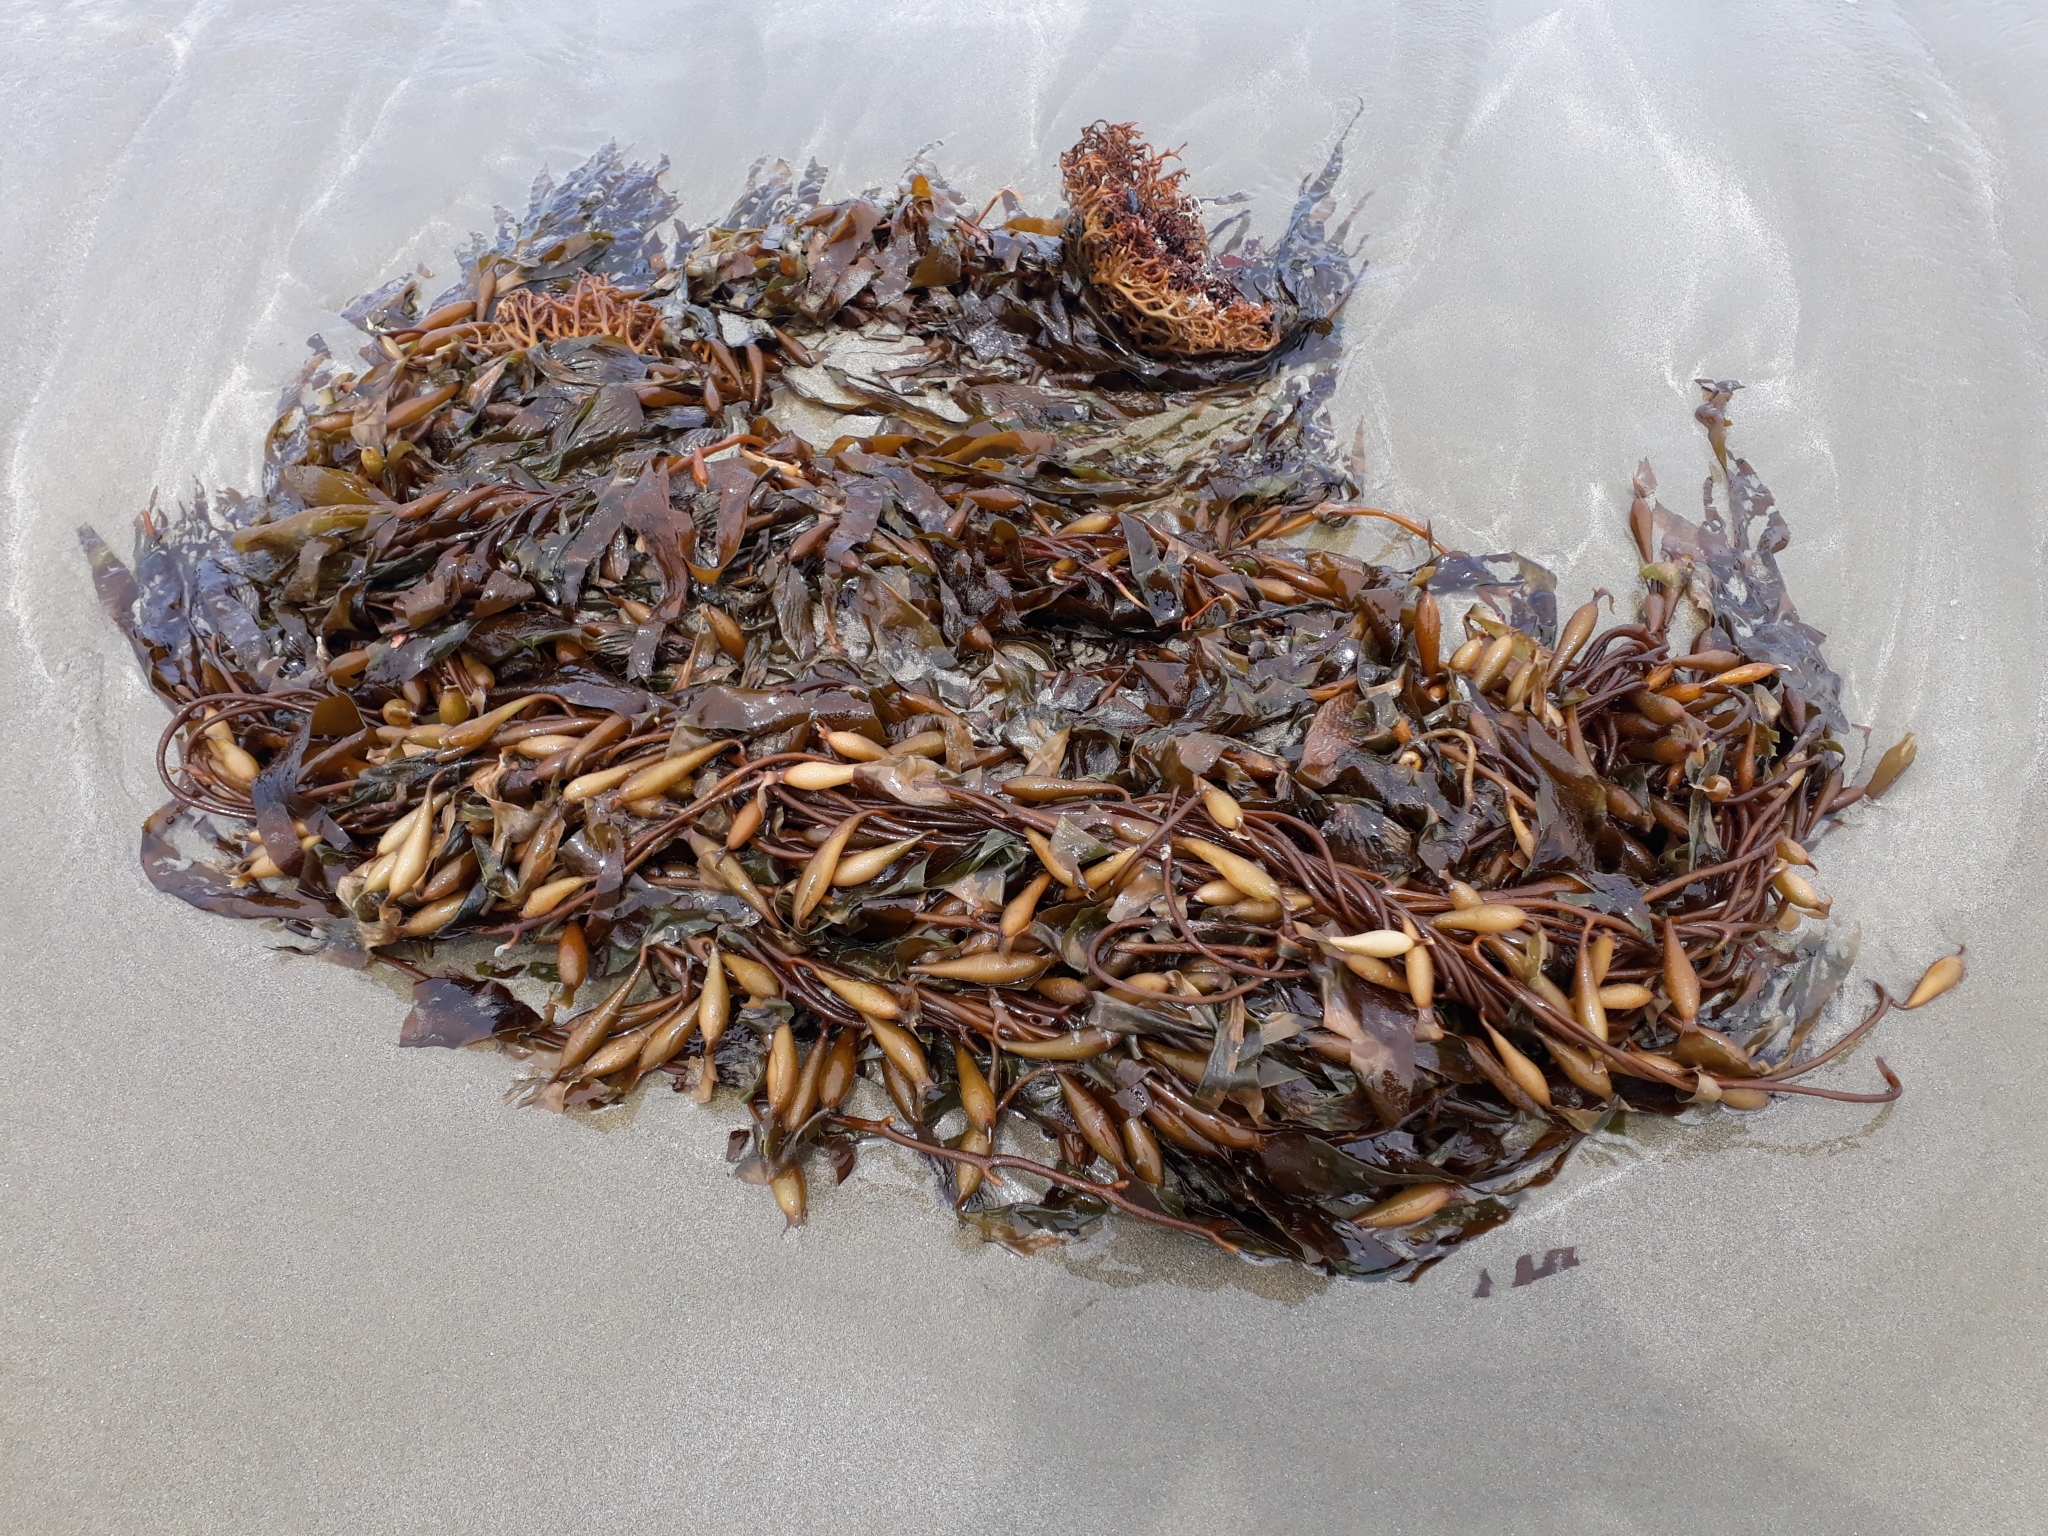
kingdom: Chromista
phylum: Ochrophyta
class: Phaeophyceae
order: Laminariales
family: Laminariaceae
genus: Macrocystis
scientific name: Macrocystis pyrifera
